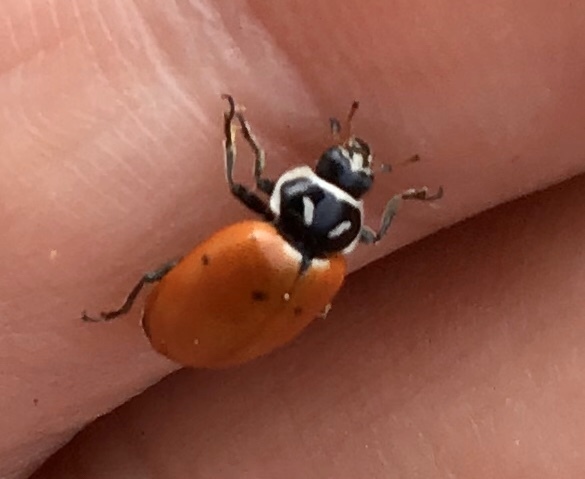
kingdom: Animalia
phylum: Arthropoda
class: Insecta
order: Coleoptera
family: Coccinellidae
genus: Hippodamia
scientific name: Hippodamia convergens
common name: Convergent lady beetle
